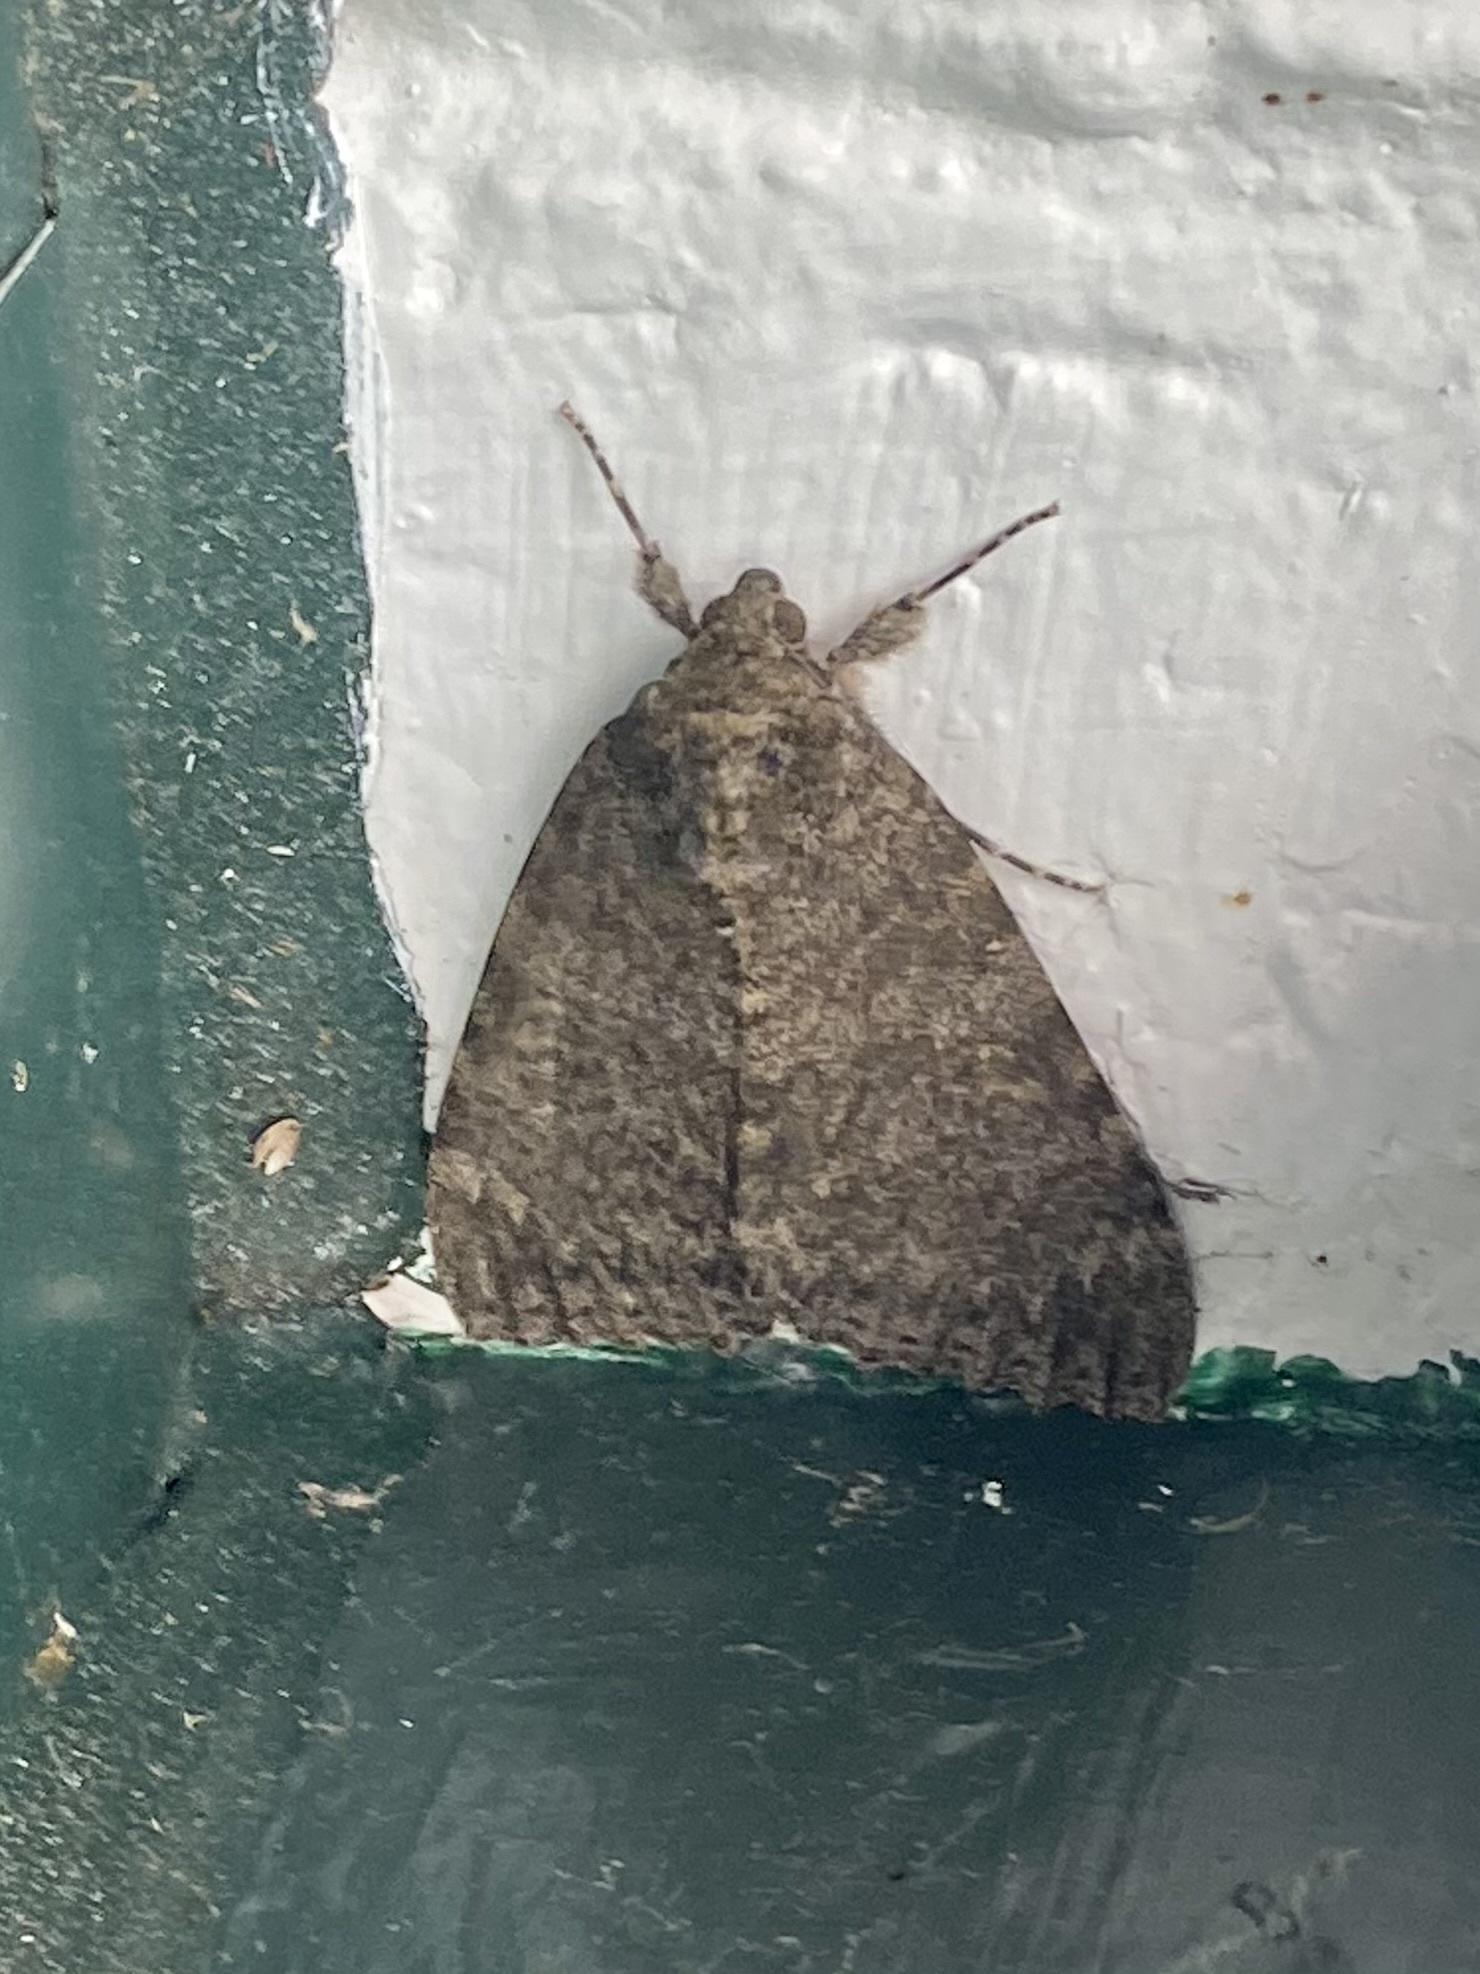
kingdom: Animalia
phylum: Arthropoda
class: Insecta
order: Lepidoptera
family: Erebidae
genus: Catocala
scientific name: Catocala junctura
